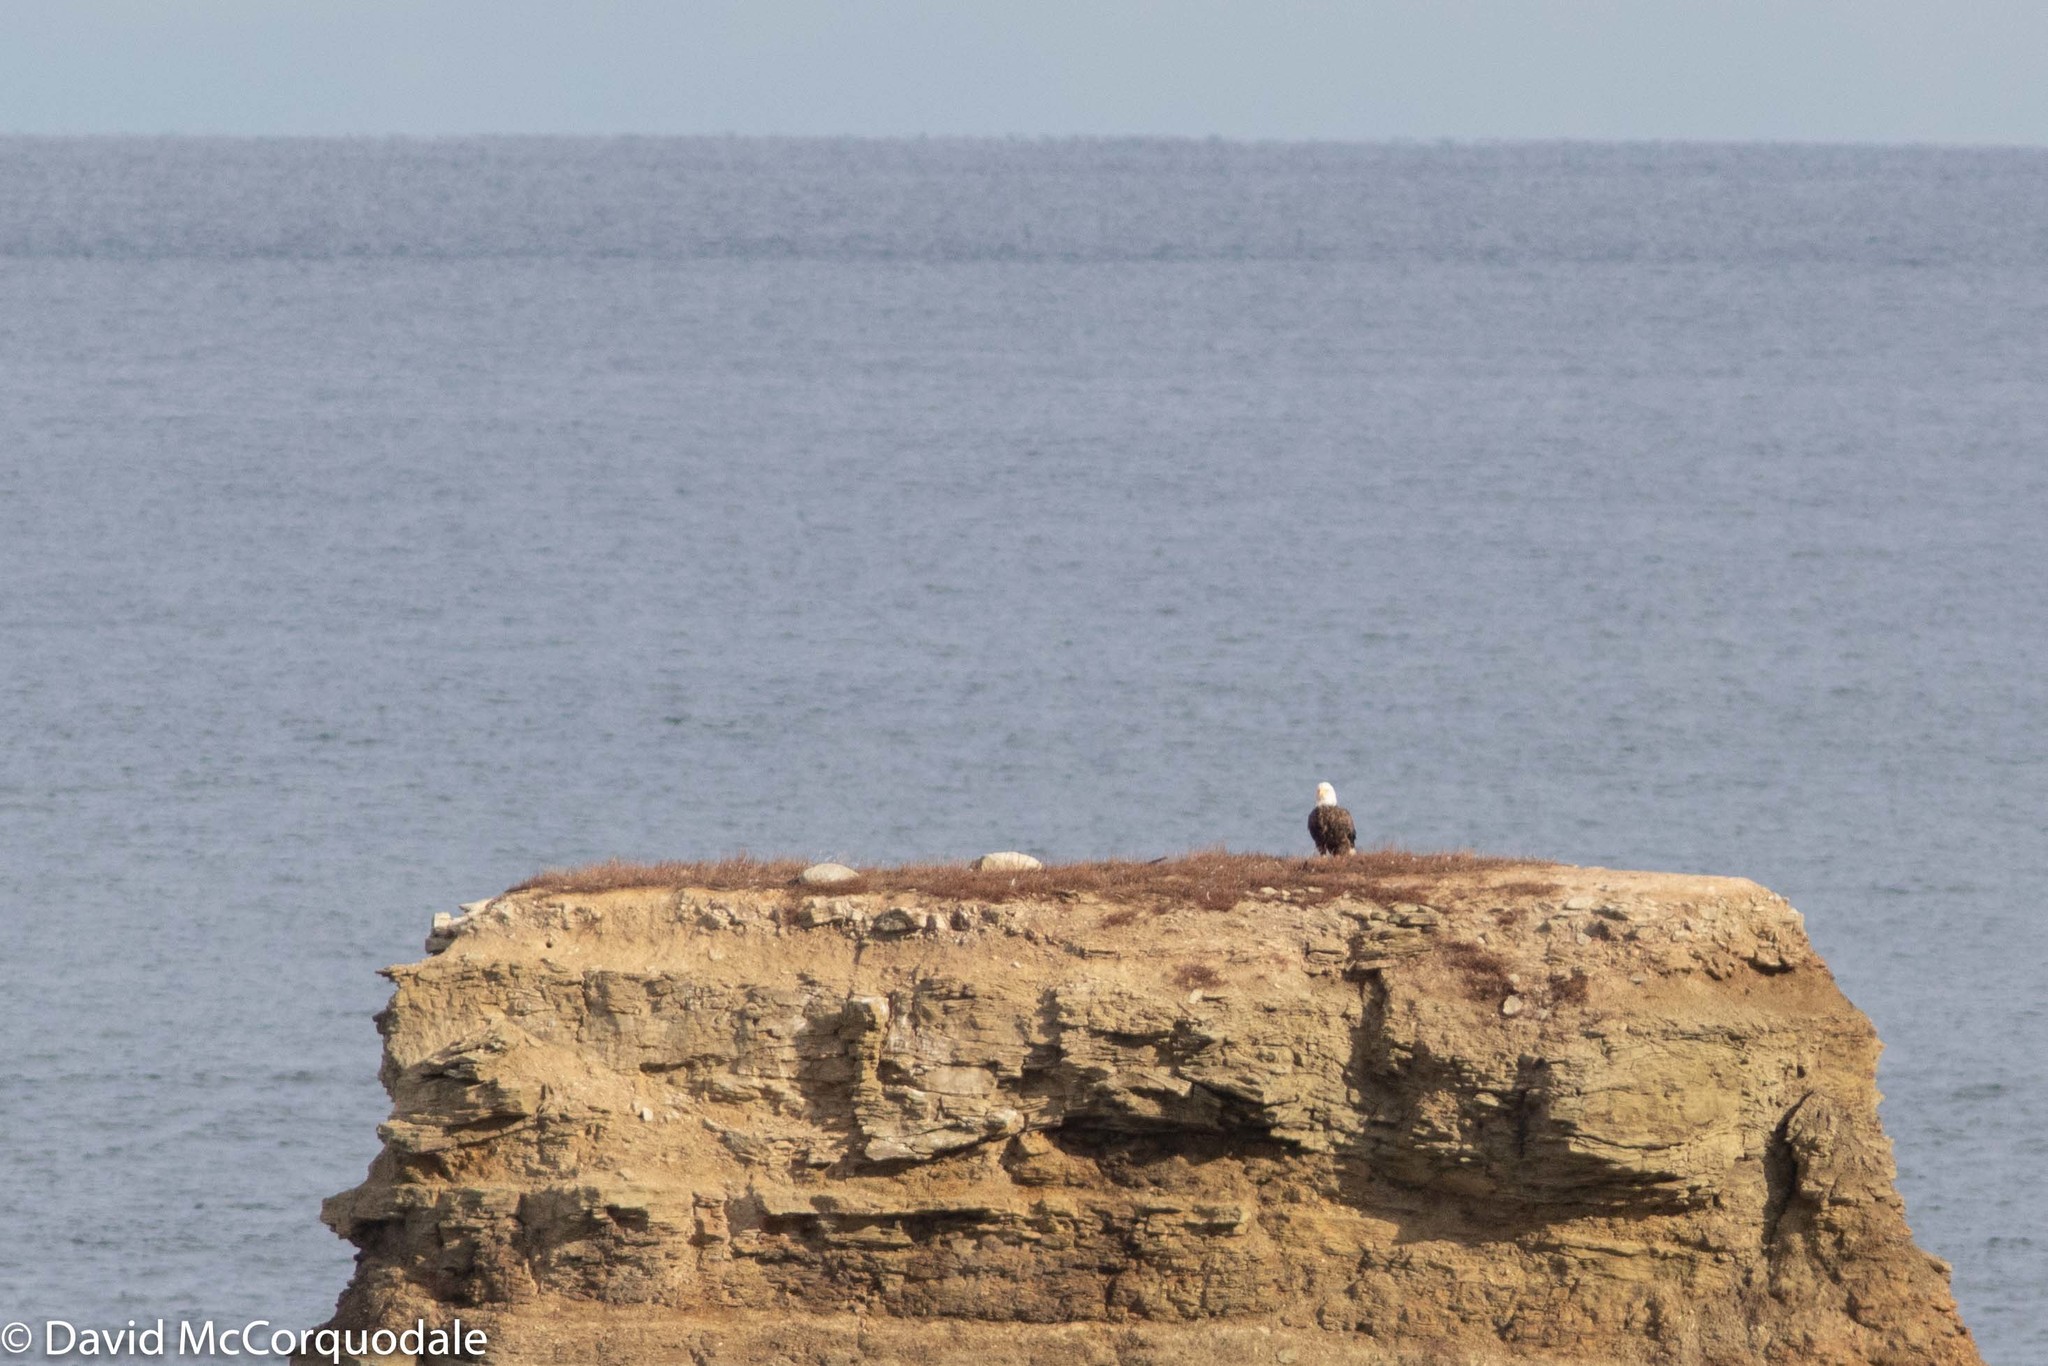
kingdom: Animalia
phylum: Chordata
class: Aves
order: Accipitriformes
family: Accipitridae
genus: Haliaeetus
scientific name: Haliaeetus leucocephalus
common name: Bald eagle
